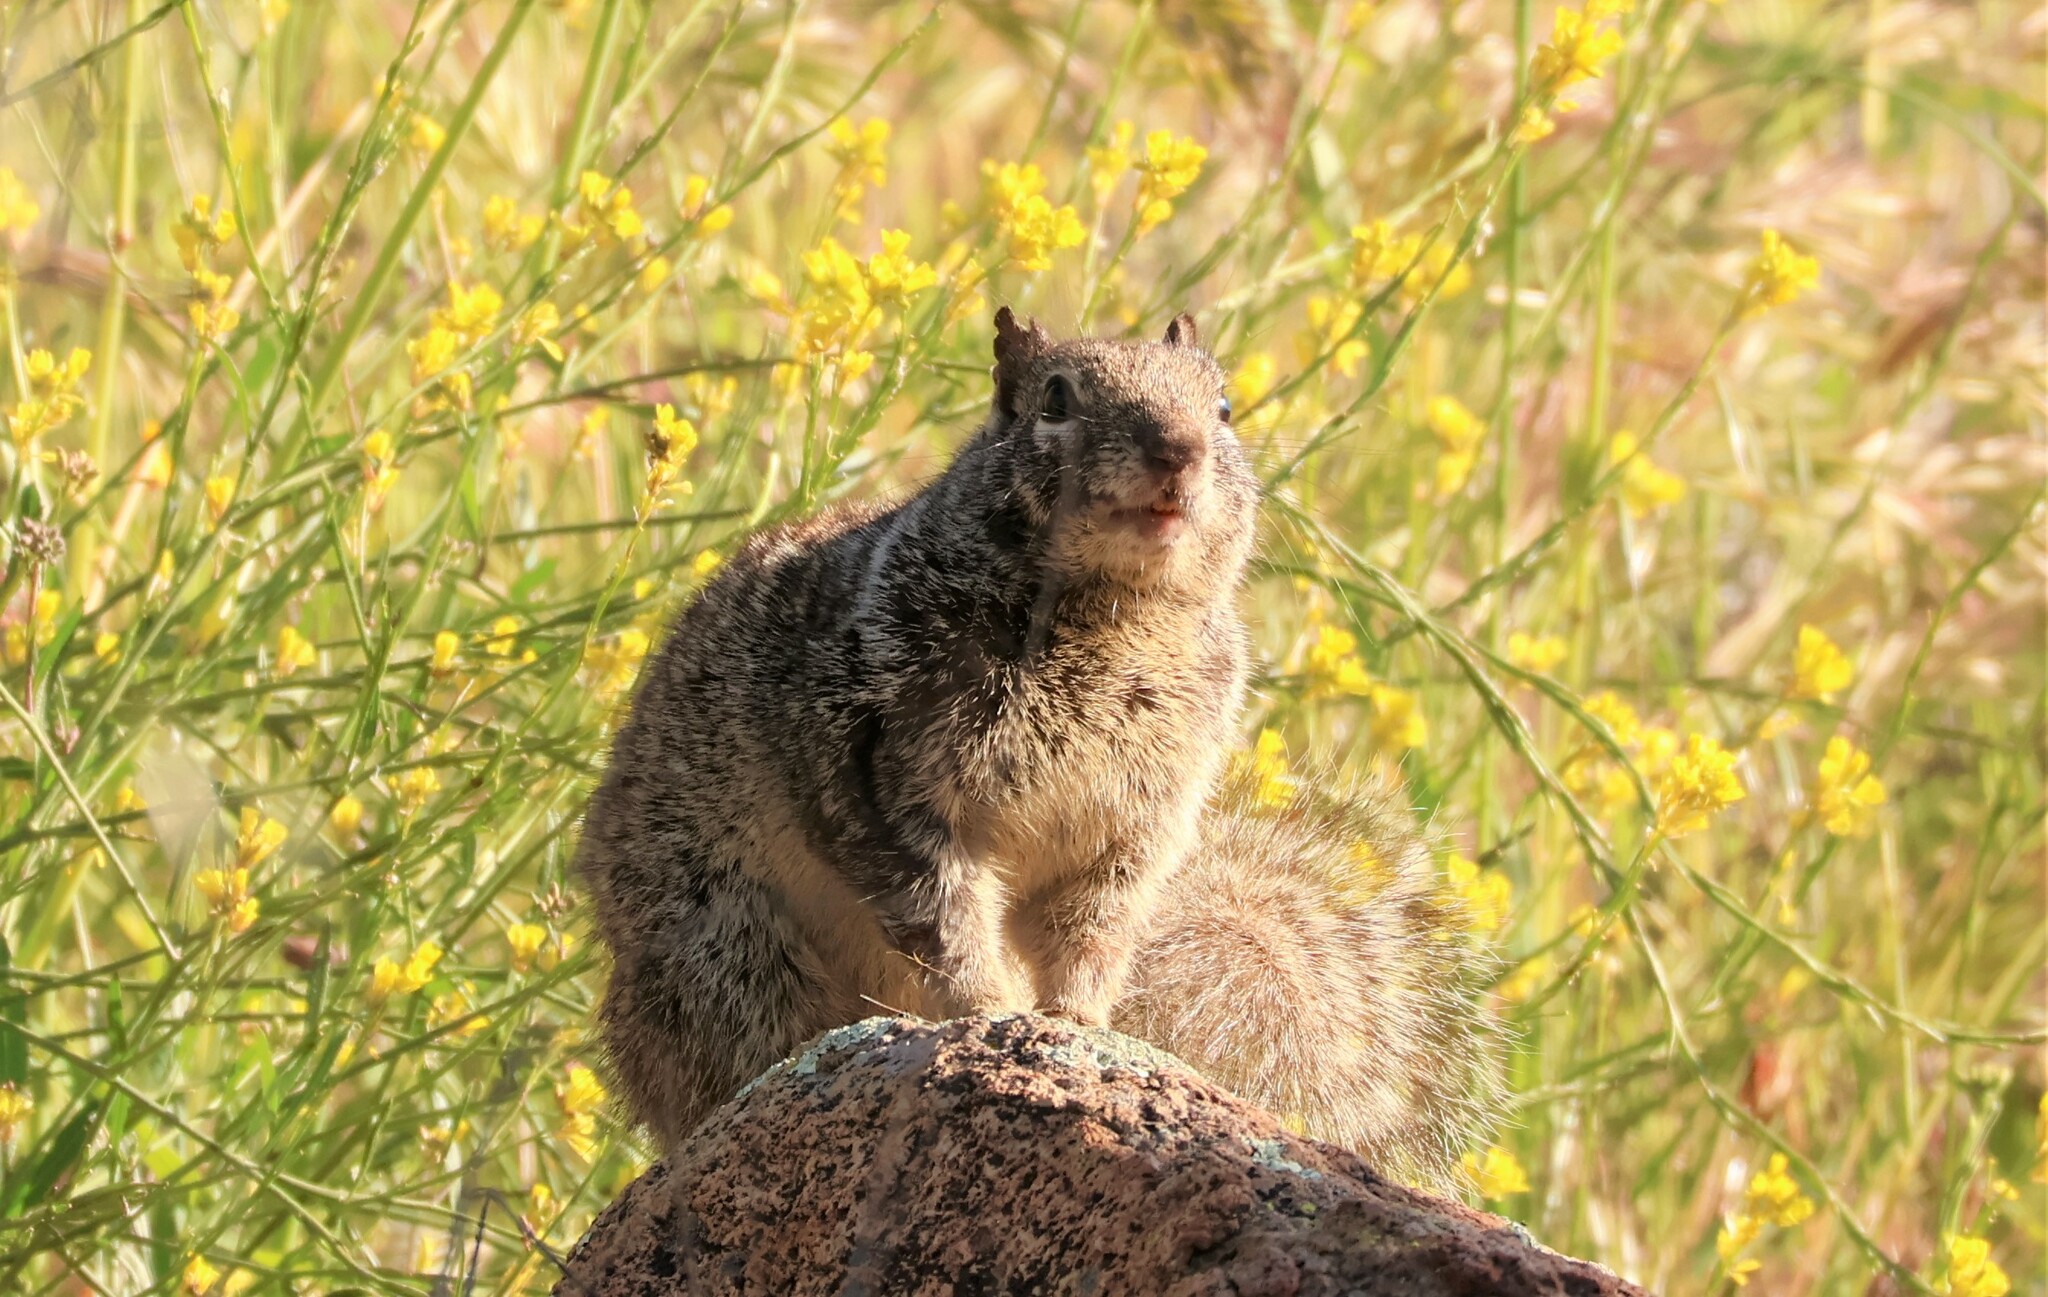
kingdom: Animalia
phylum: Chordata
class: Mammalia
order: Rodentia
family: Sciuridae
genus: Otospermophilus
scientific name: Otospermophilus beecheyi
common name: California ground squirrel
